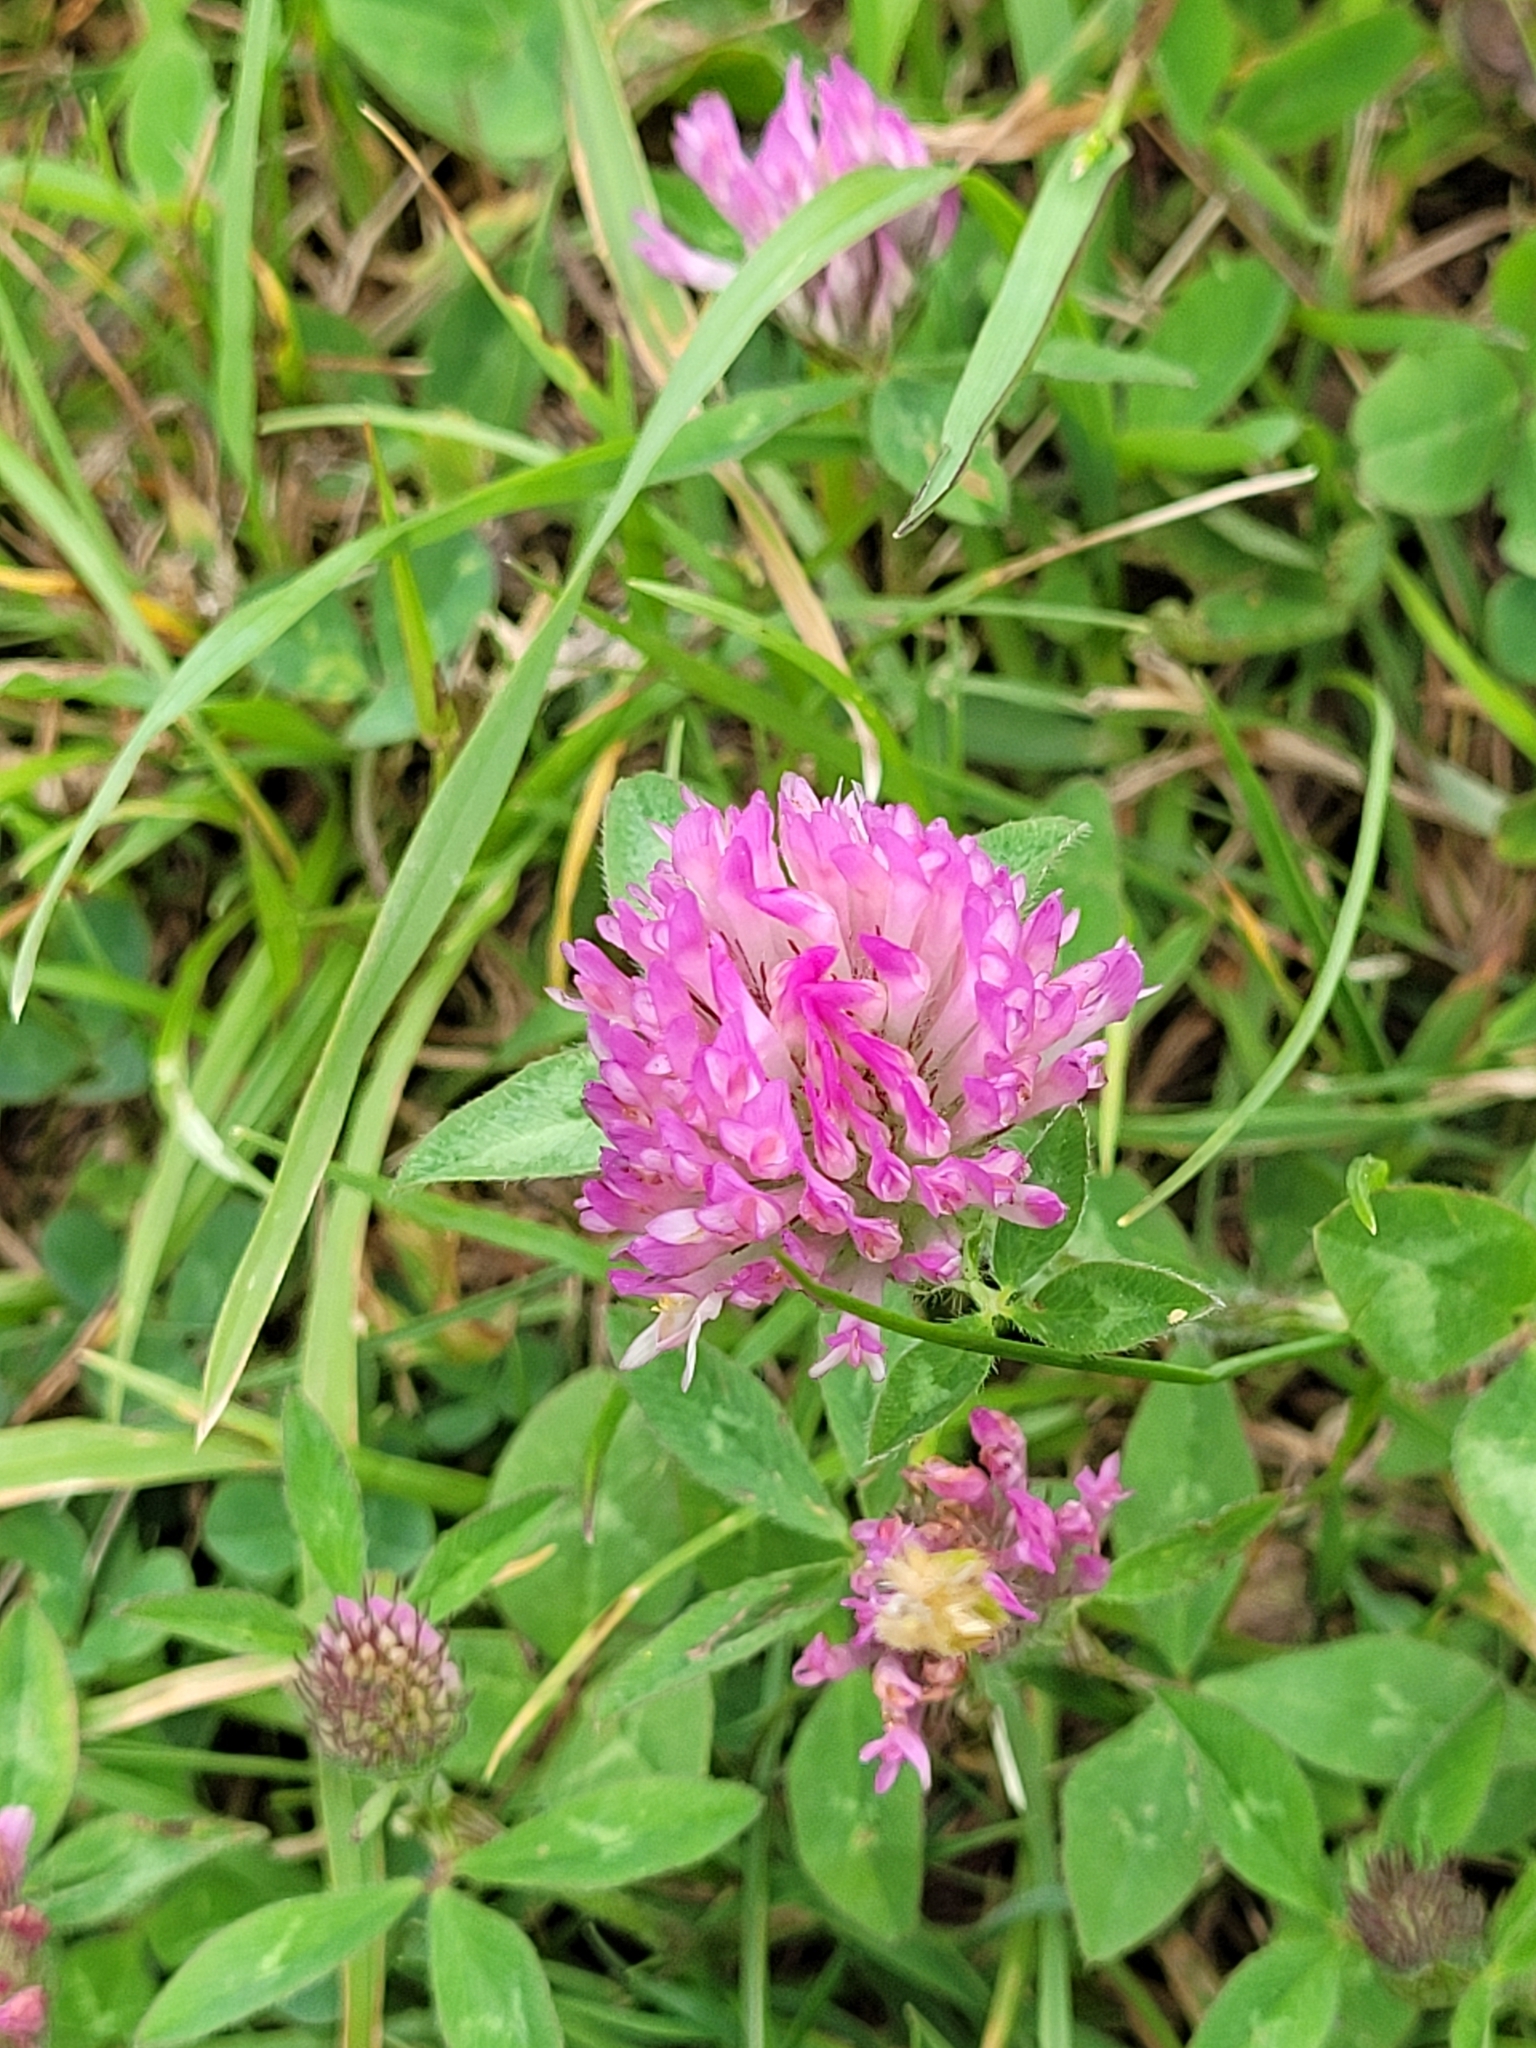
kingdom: Plantae
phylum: Tracheophyta
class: Magnoliopsida
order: Fabales
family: Fabaceae
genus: Trifolium
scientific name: Trifolium pratense
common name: Red clover
